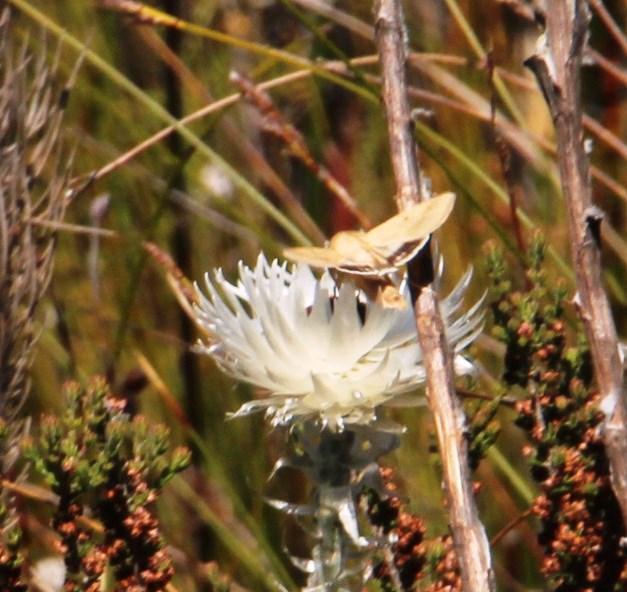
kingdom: Animalia
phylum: Arthropoda
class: Insecta
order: Lepidoptera
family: Noctuidae
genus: Helicoverpa
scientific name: Helicoverpa armigera
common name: Cotton bollworm
